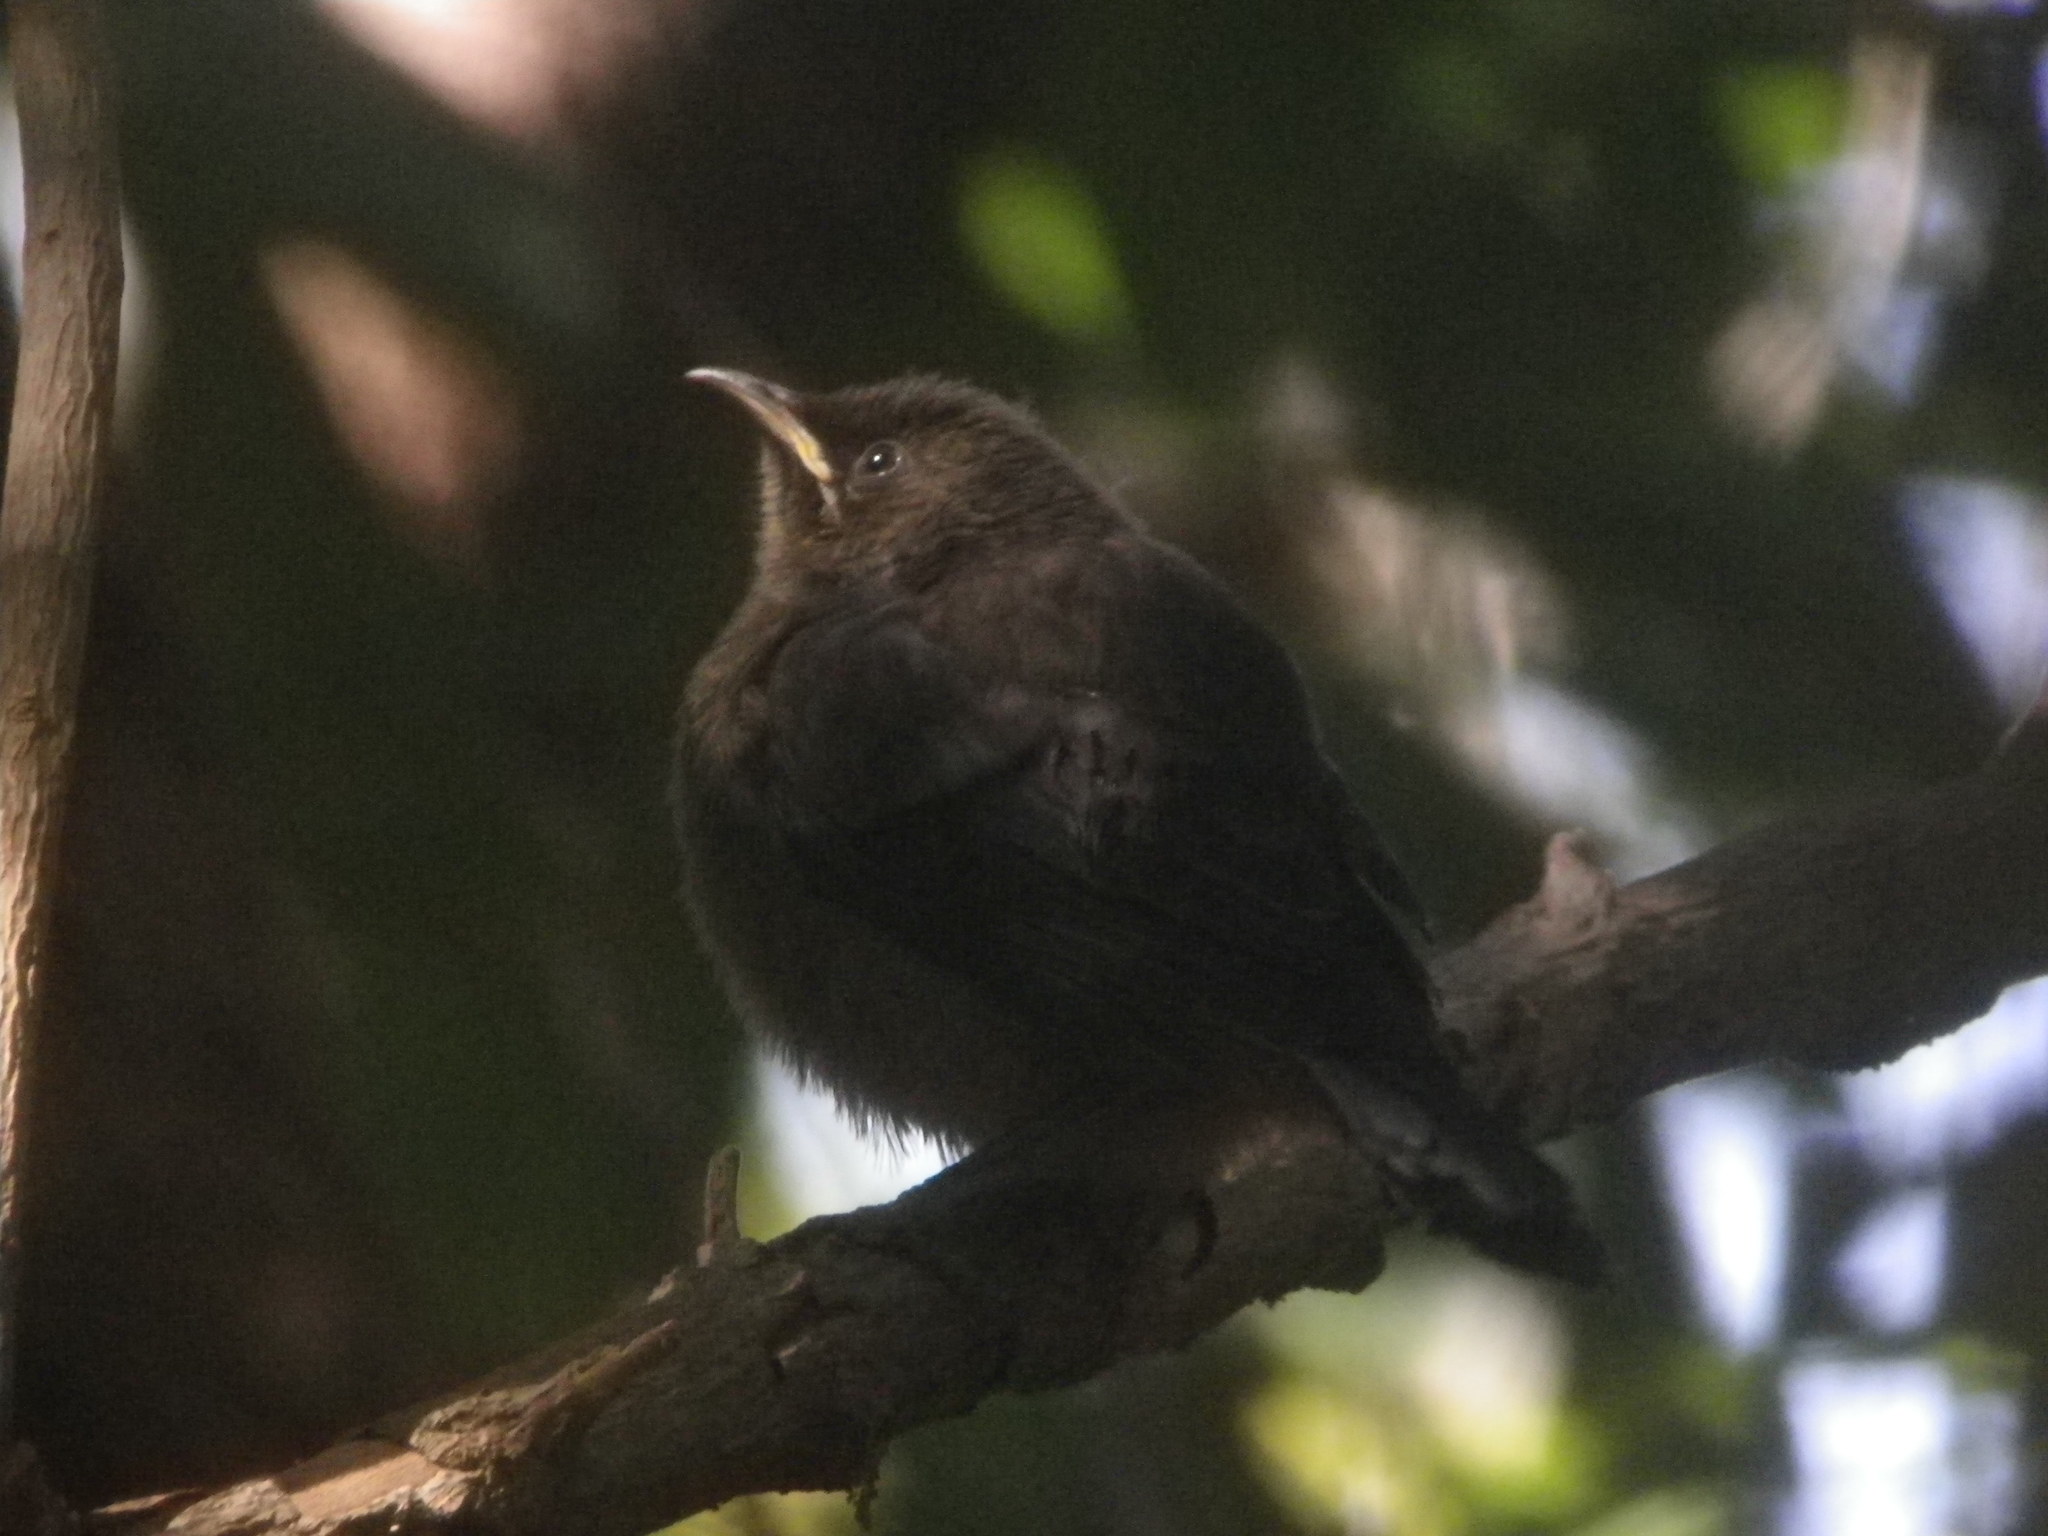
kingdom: Animalia
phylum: Chordata
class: Aves
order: Passeriformes
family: Meliphagidae
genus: Anthornis
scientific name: Anthornis melanura
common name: New zealand bellbird
